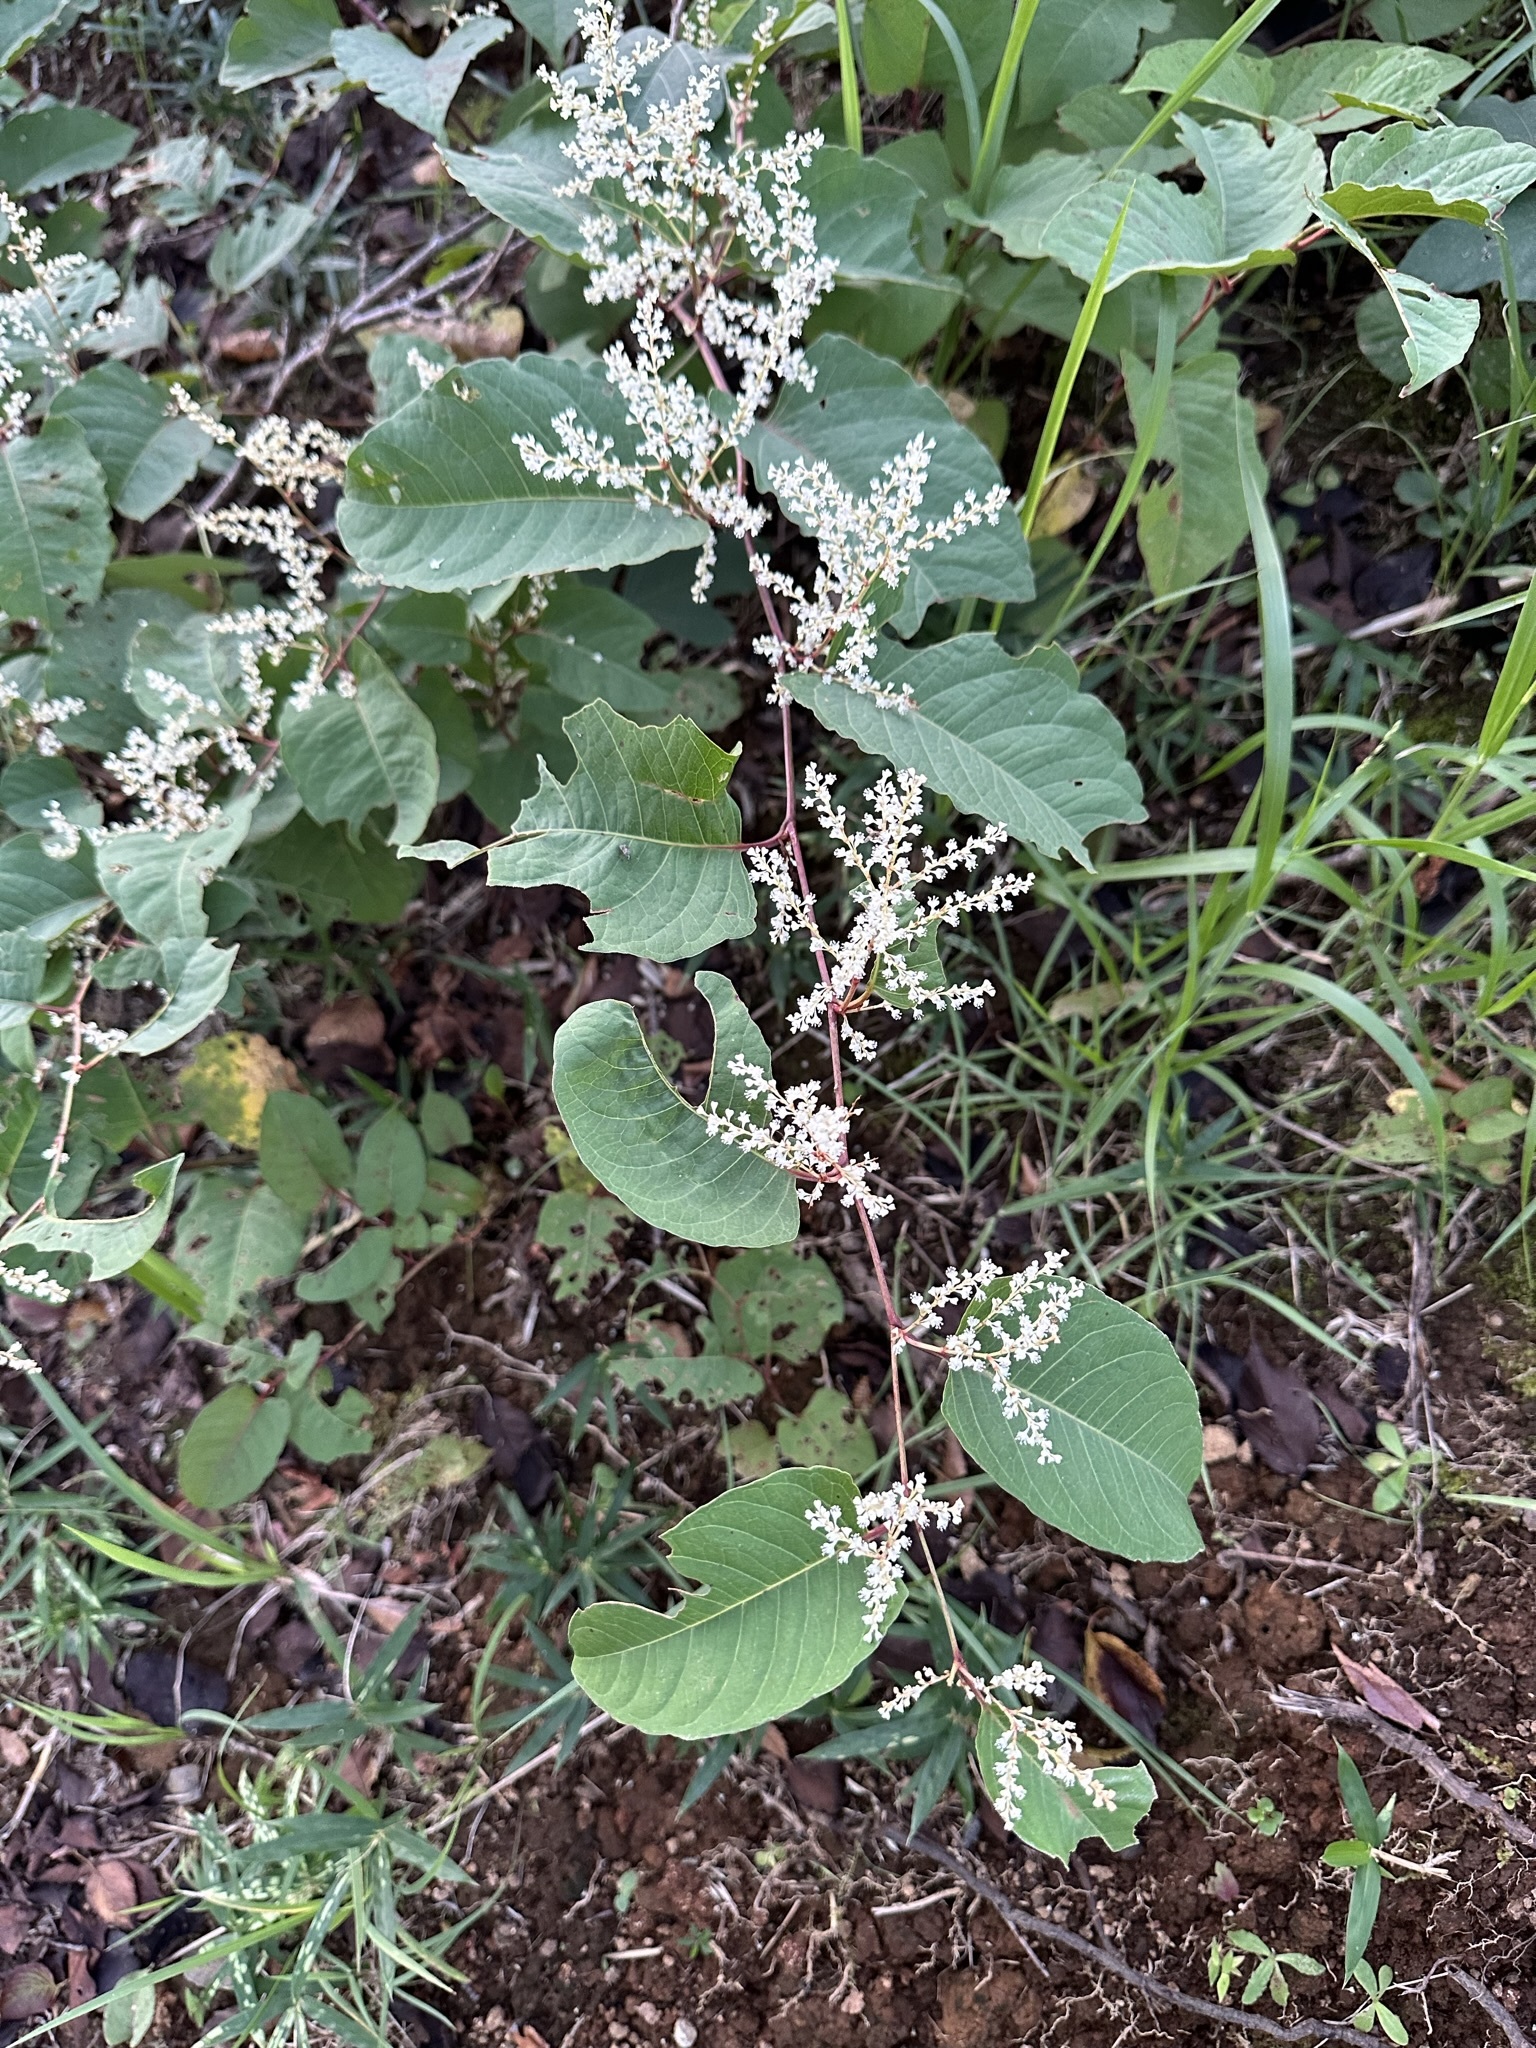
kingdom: Plantae
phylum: Tracheophyta
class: Magnoliopsida
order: Caryophyllales
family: Polygonaceae
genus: Reynoutria
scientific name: Reynoutria japonica
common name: Japanese knotweed
